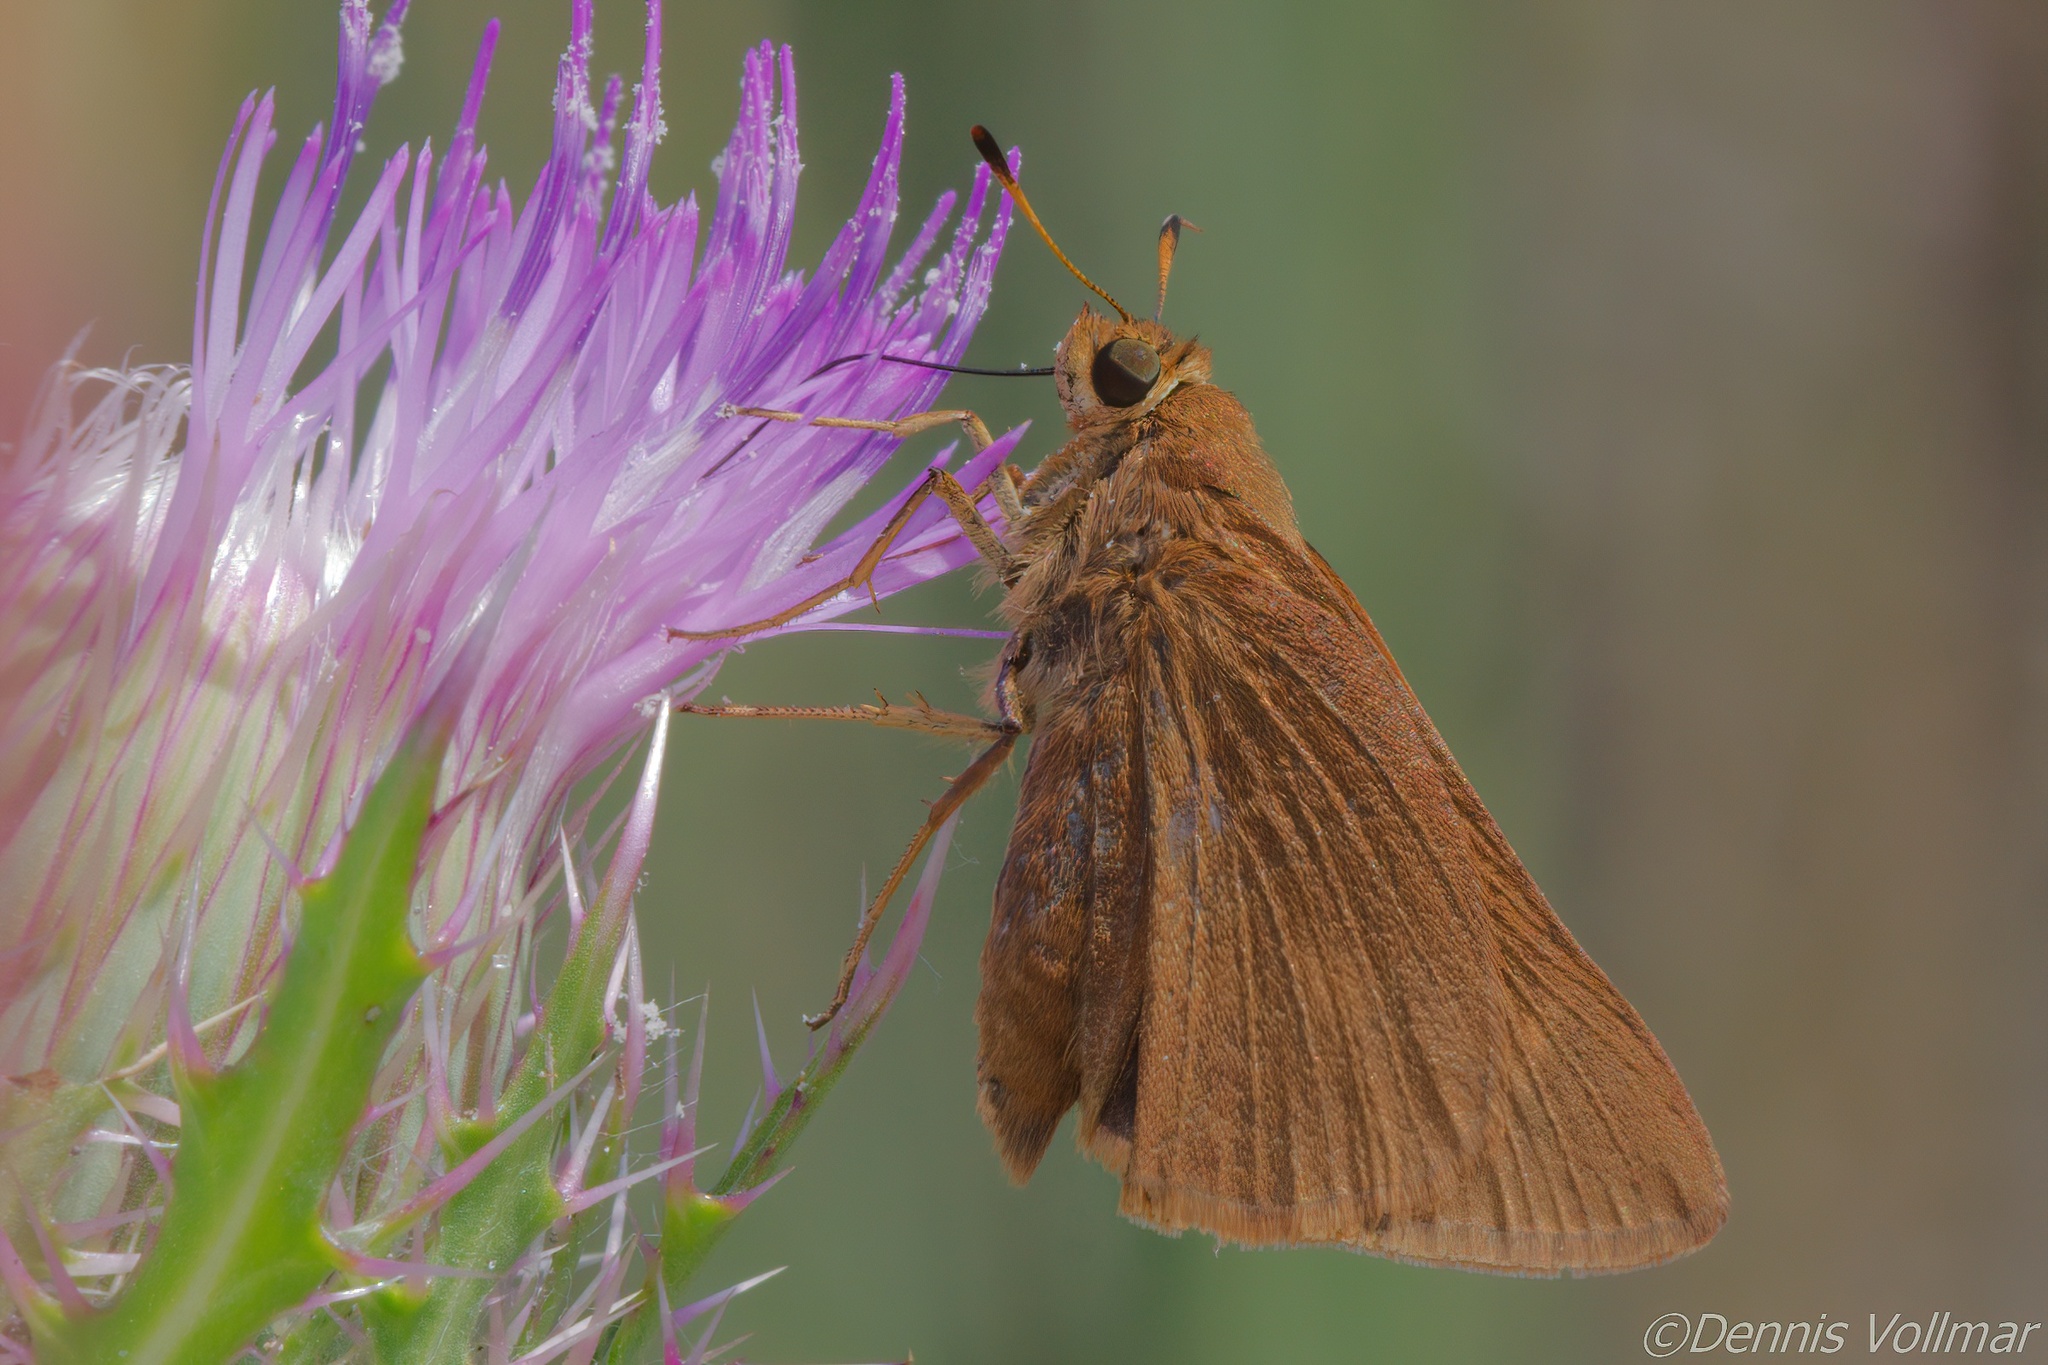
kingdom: Animalia
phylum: Arthropoda
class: Insecta
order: Lepidoptera
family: Hesperiidae
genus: Euphyes
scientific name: Euphyes pilatka
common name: Palatka skipper
